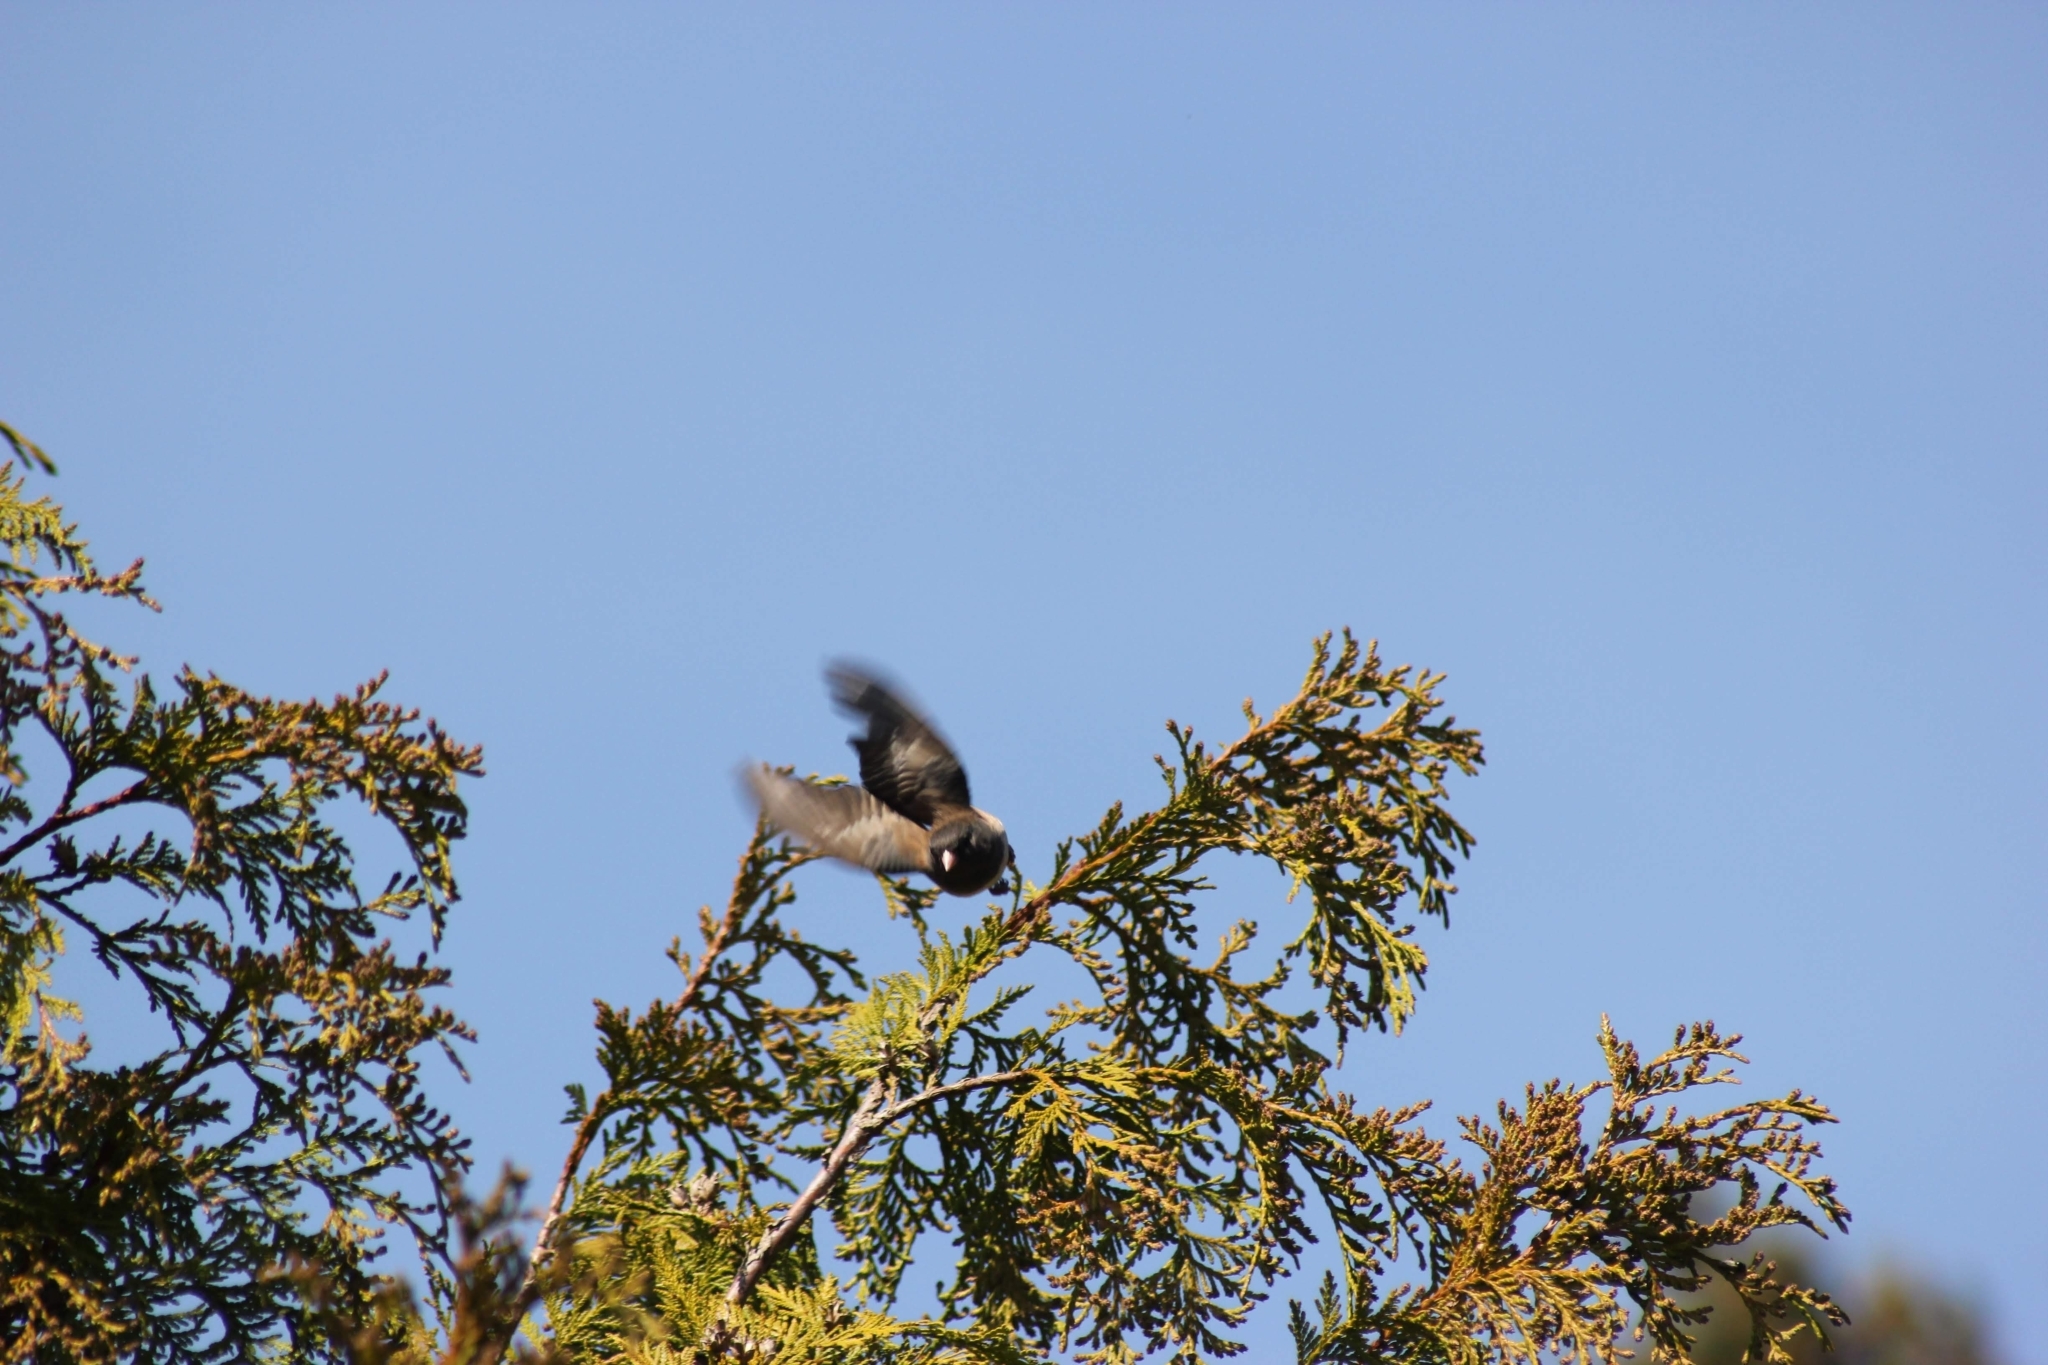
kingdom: Animalia
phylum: Chordata
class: Aves
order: Passeriformes
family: Passerellidae
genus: Junco
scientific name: Junco hyemalis
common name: Dark-eyed junco
